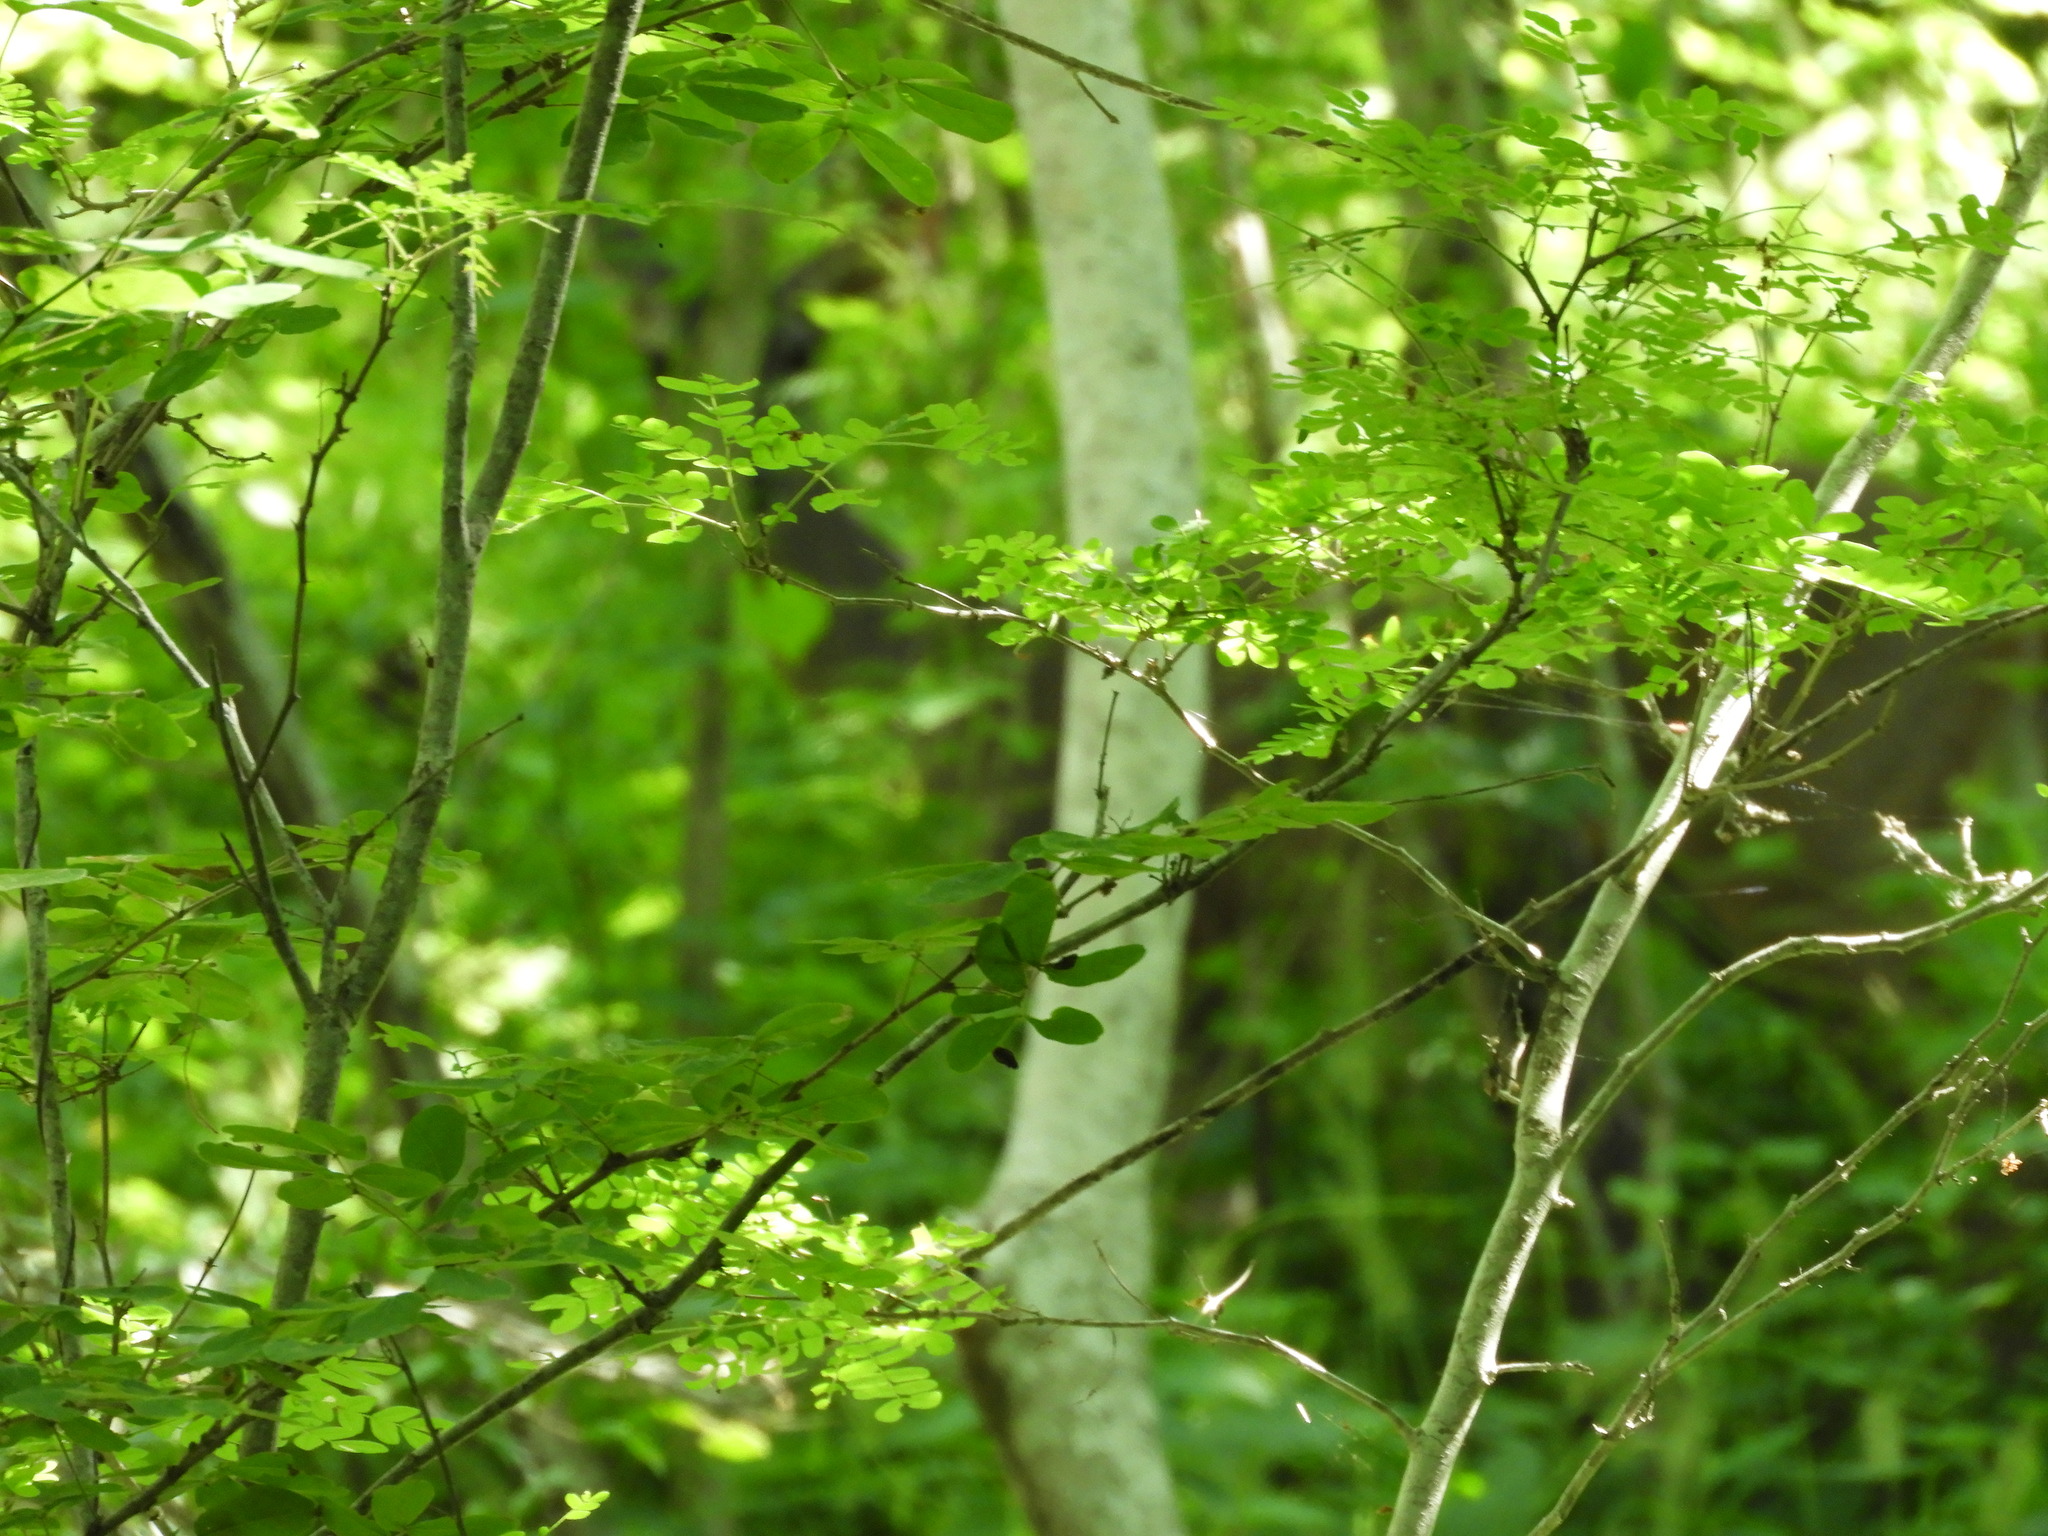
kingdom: Animalia
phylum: Chordata
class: Mammalia
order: Artiodactyla
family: Cervidae
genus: Odocoileus
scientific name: Odocoileus virginianus
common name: White-tailed deer
